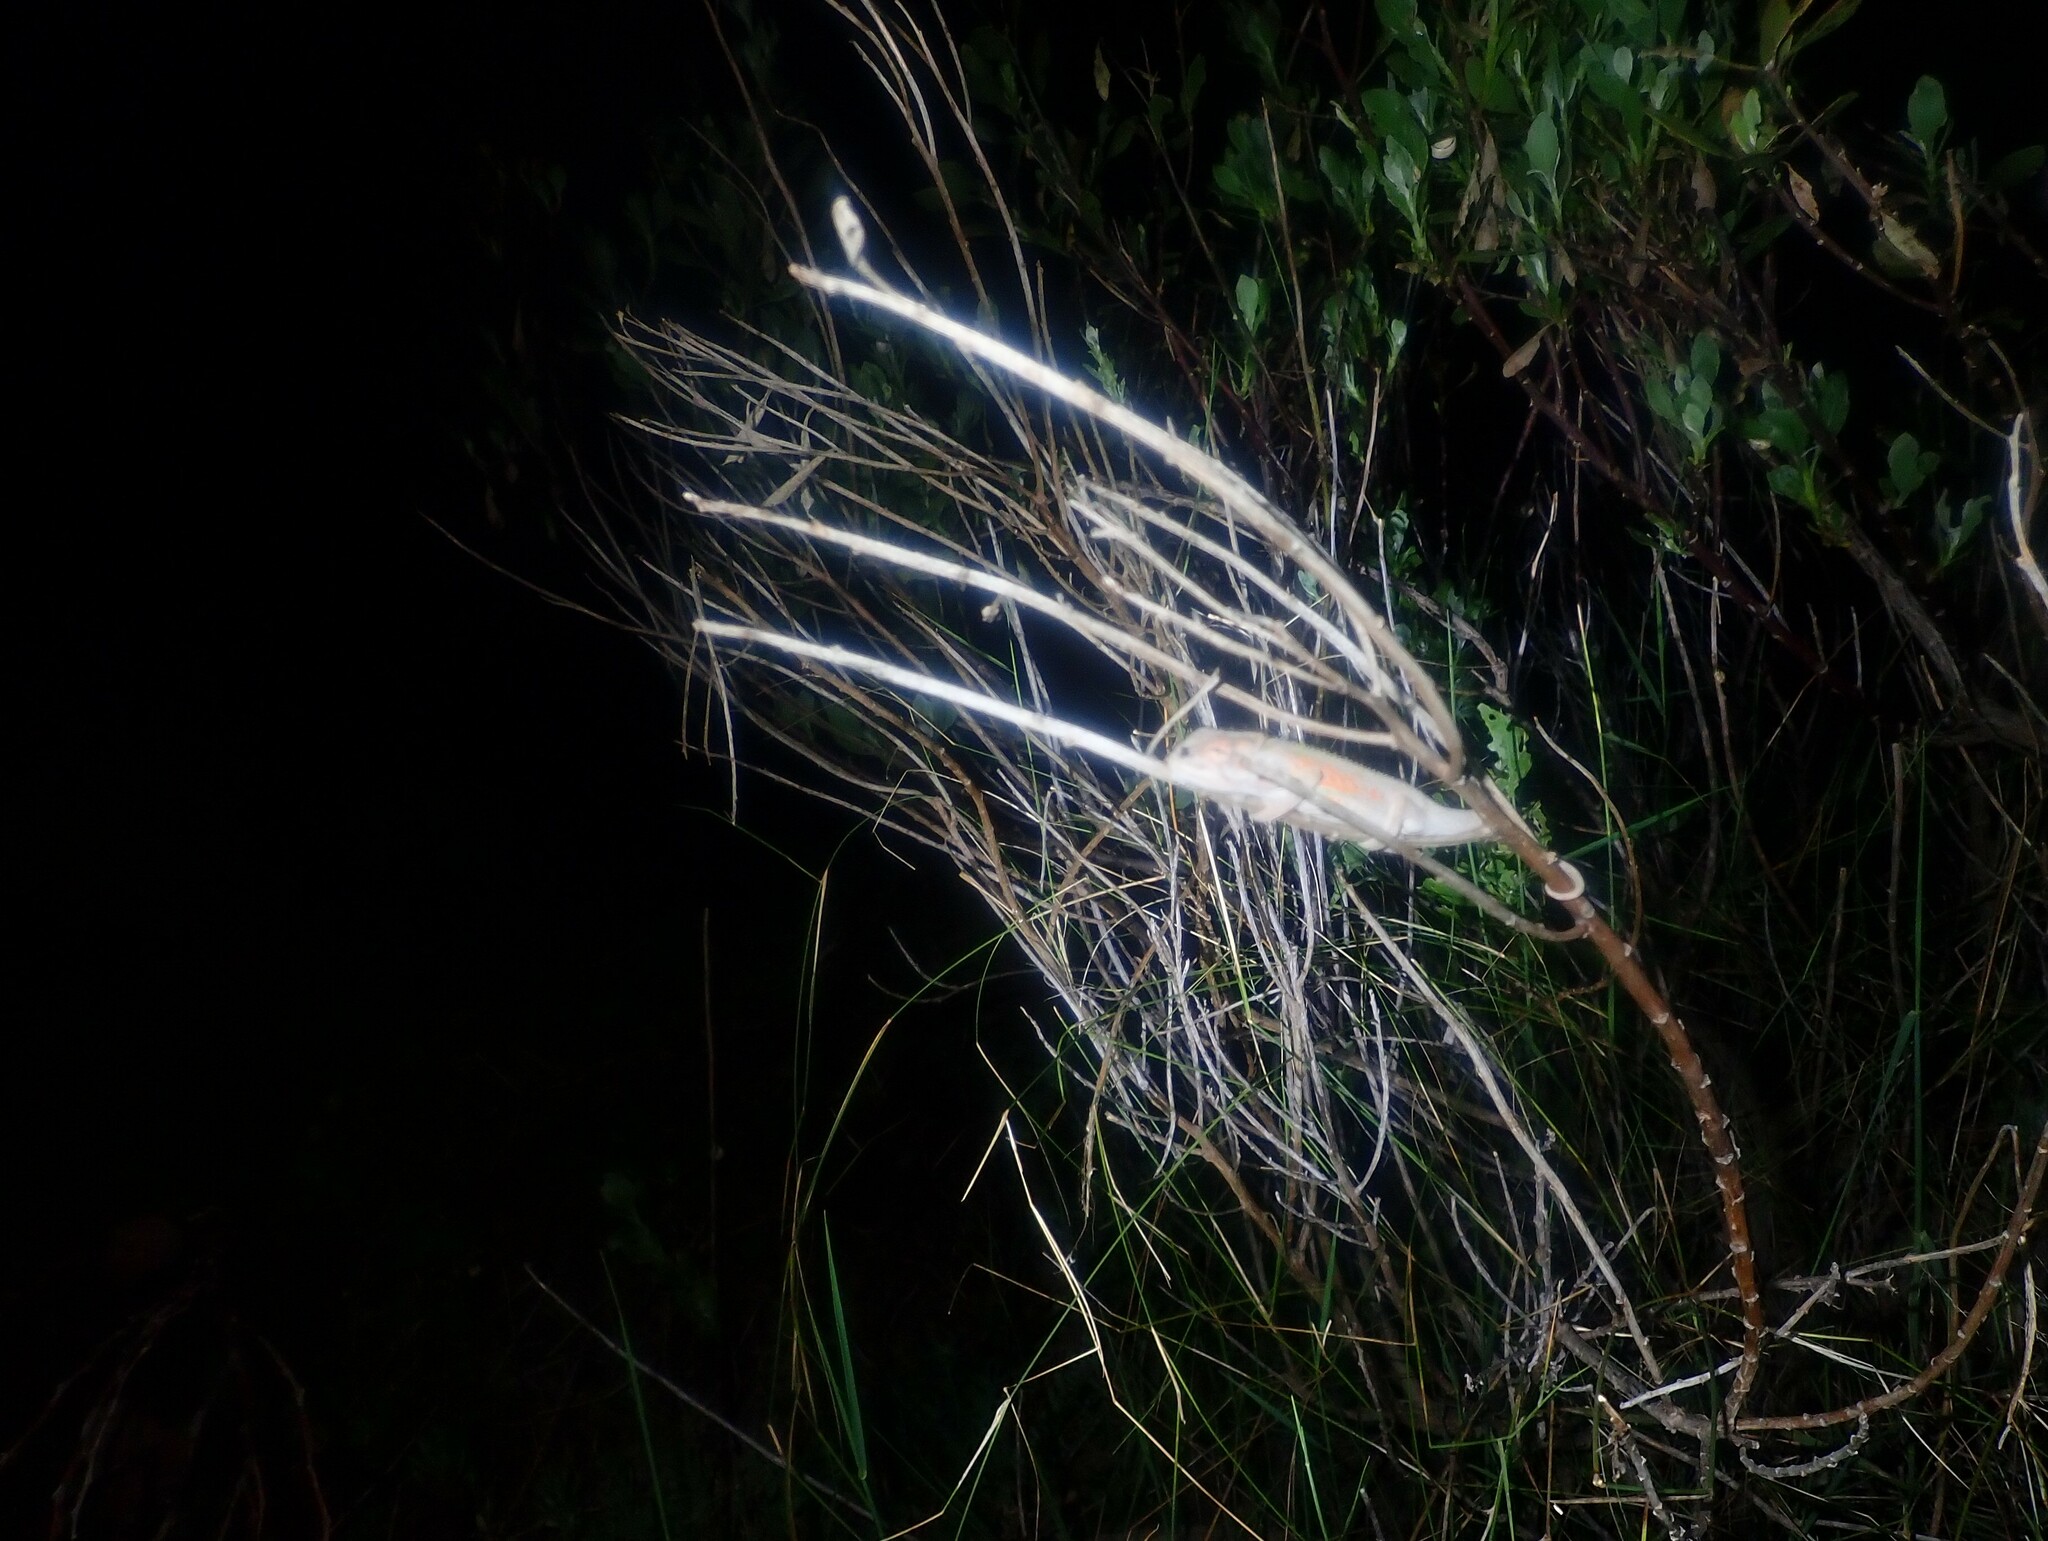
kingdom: Animalia
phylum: Chordata
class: Squamata
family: Chamaeleonidae
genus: Bradypodion
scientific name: Bradypodion pumilum
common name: Cape dwarf chameleon
